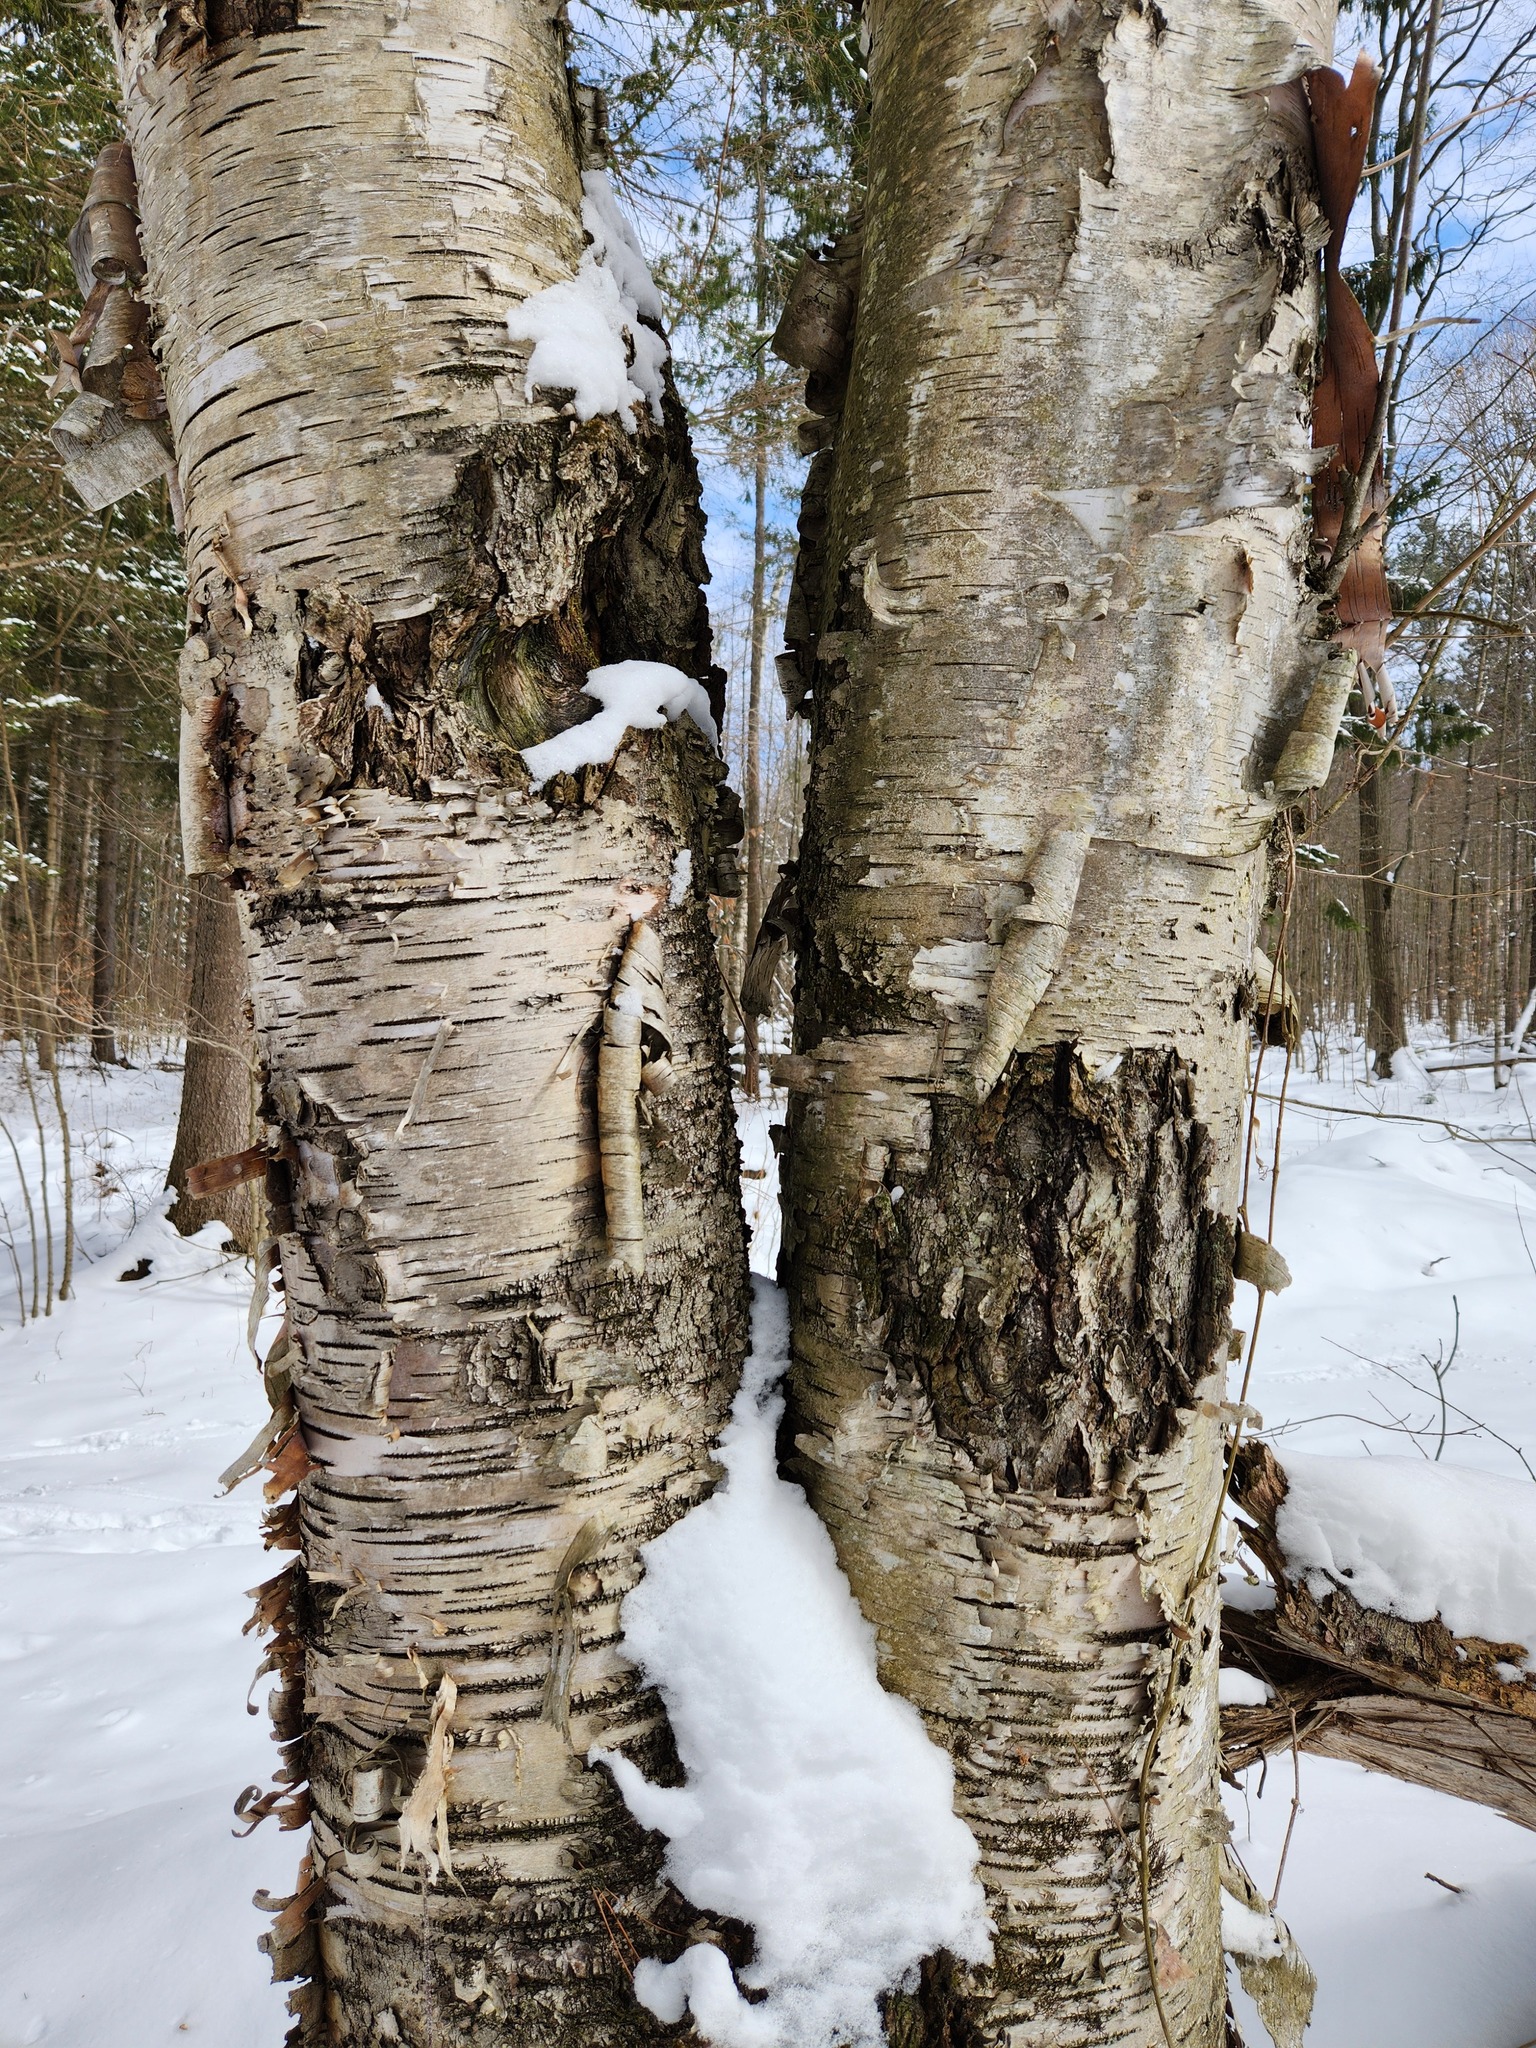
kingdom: Plantae
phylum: Tracheophyta
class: Magnoliopsida
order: Fagales
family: Betulaceae
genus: Betula
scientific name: Betula papyrifera
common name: Paper birch
